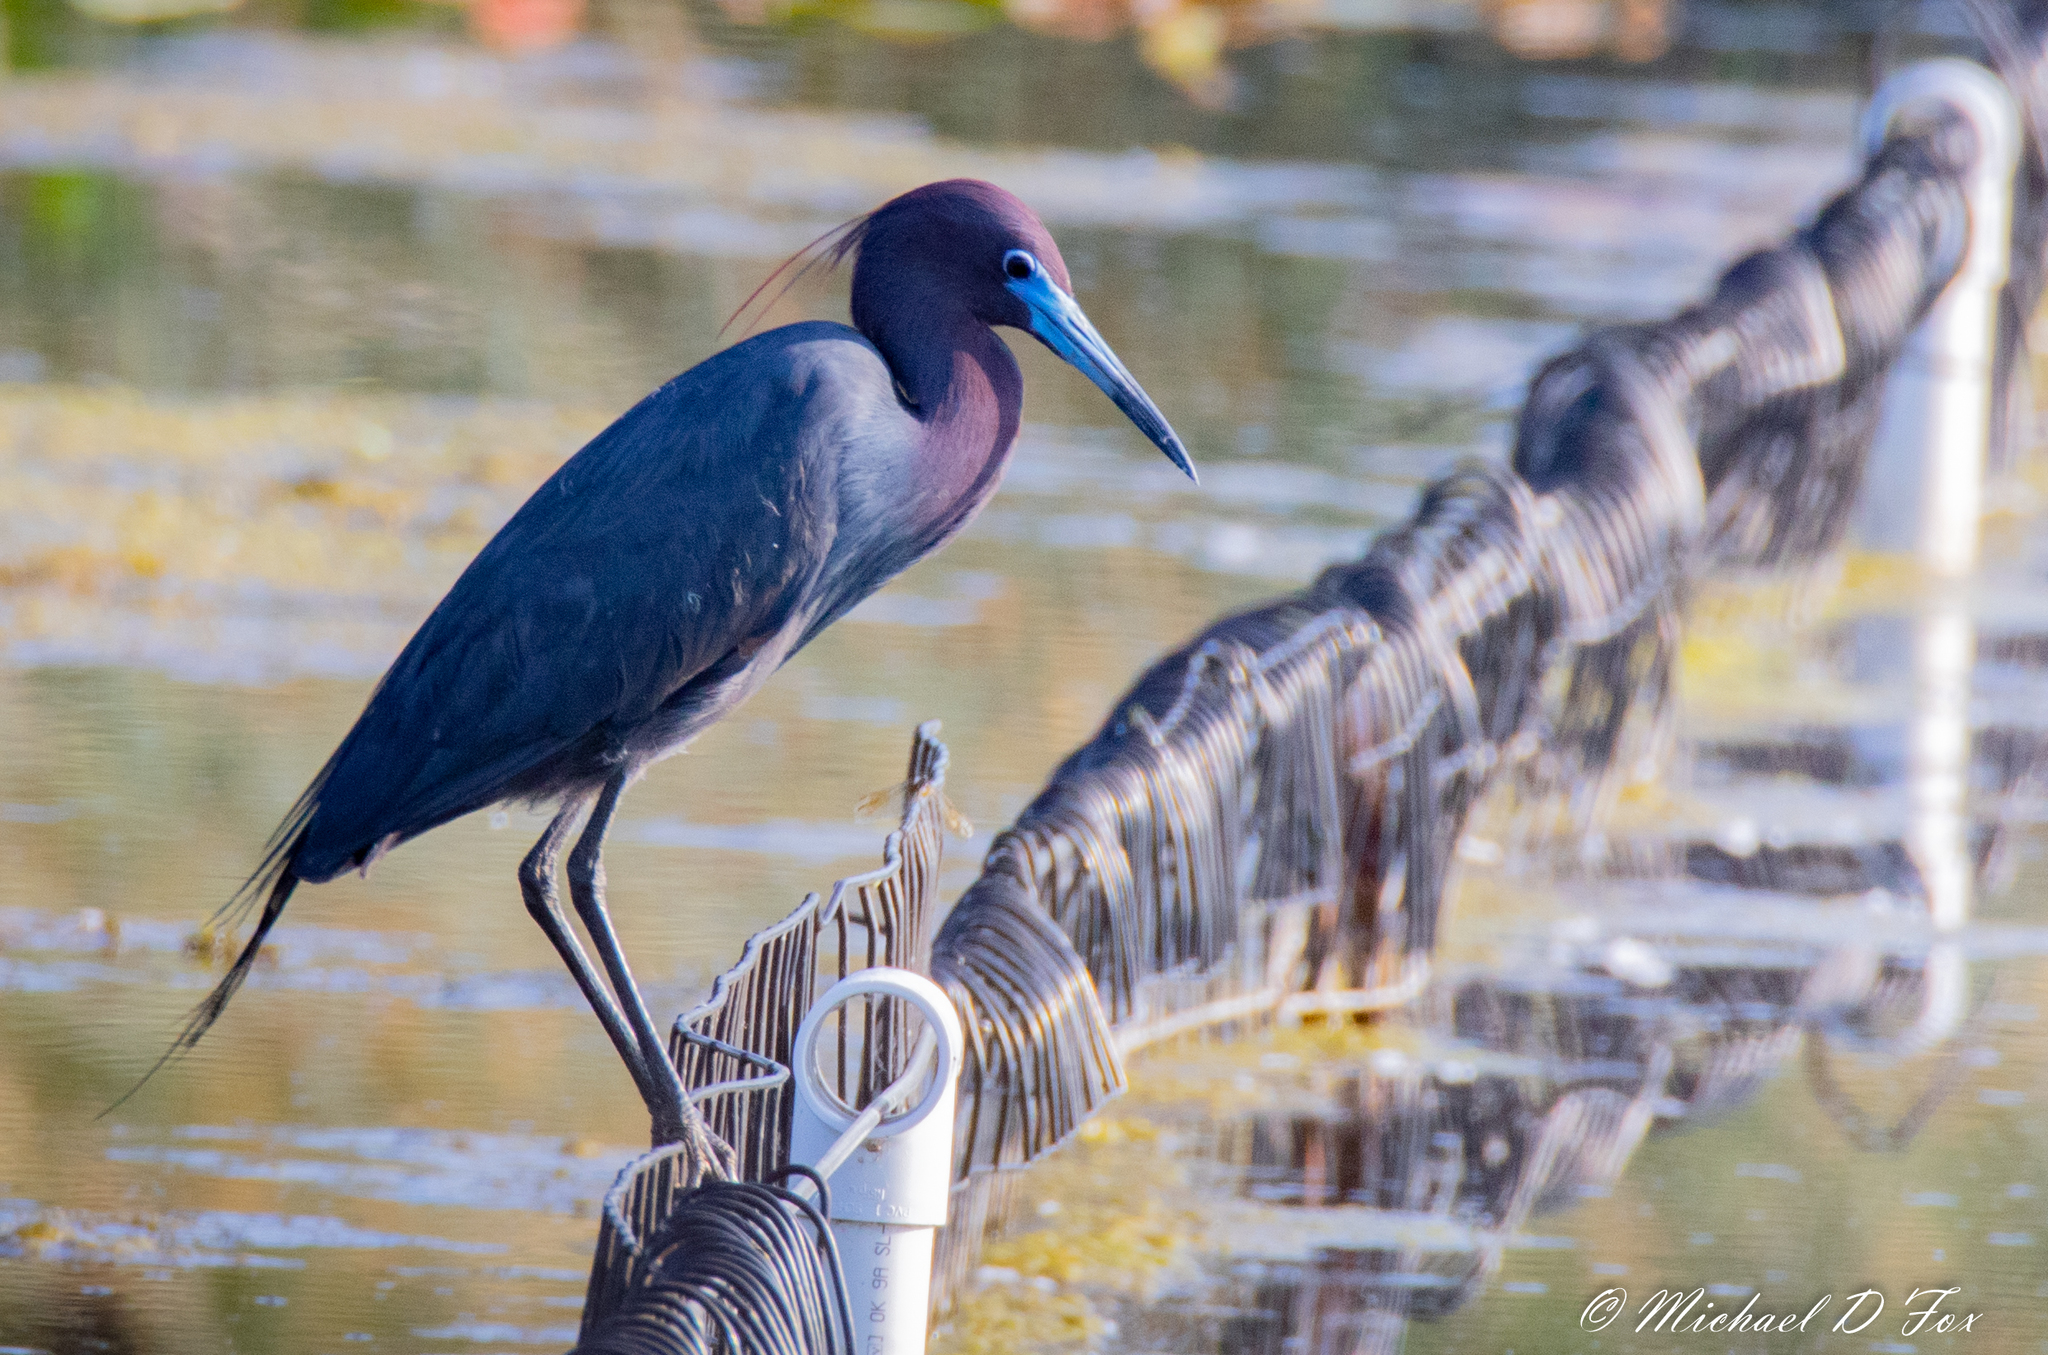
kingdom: Animalia
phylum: Chordata
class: Aves
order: Pelecaniformes
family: Ardeidae
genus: Egretta
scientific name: Egretta caerulea
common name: Little blue heron
